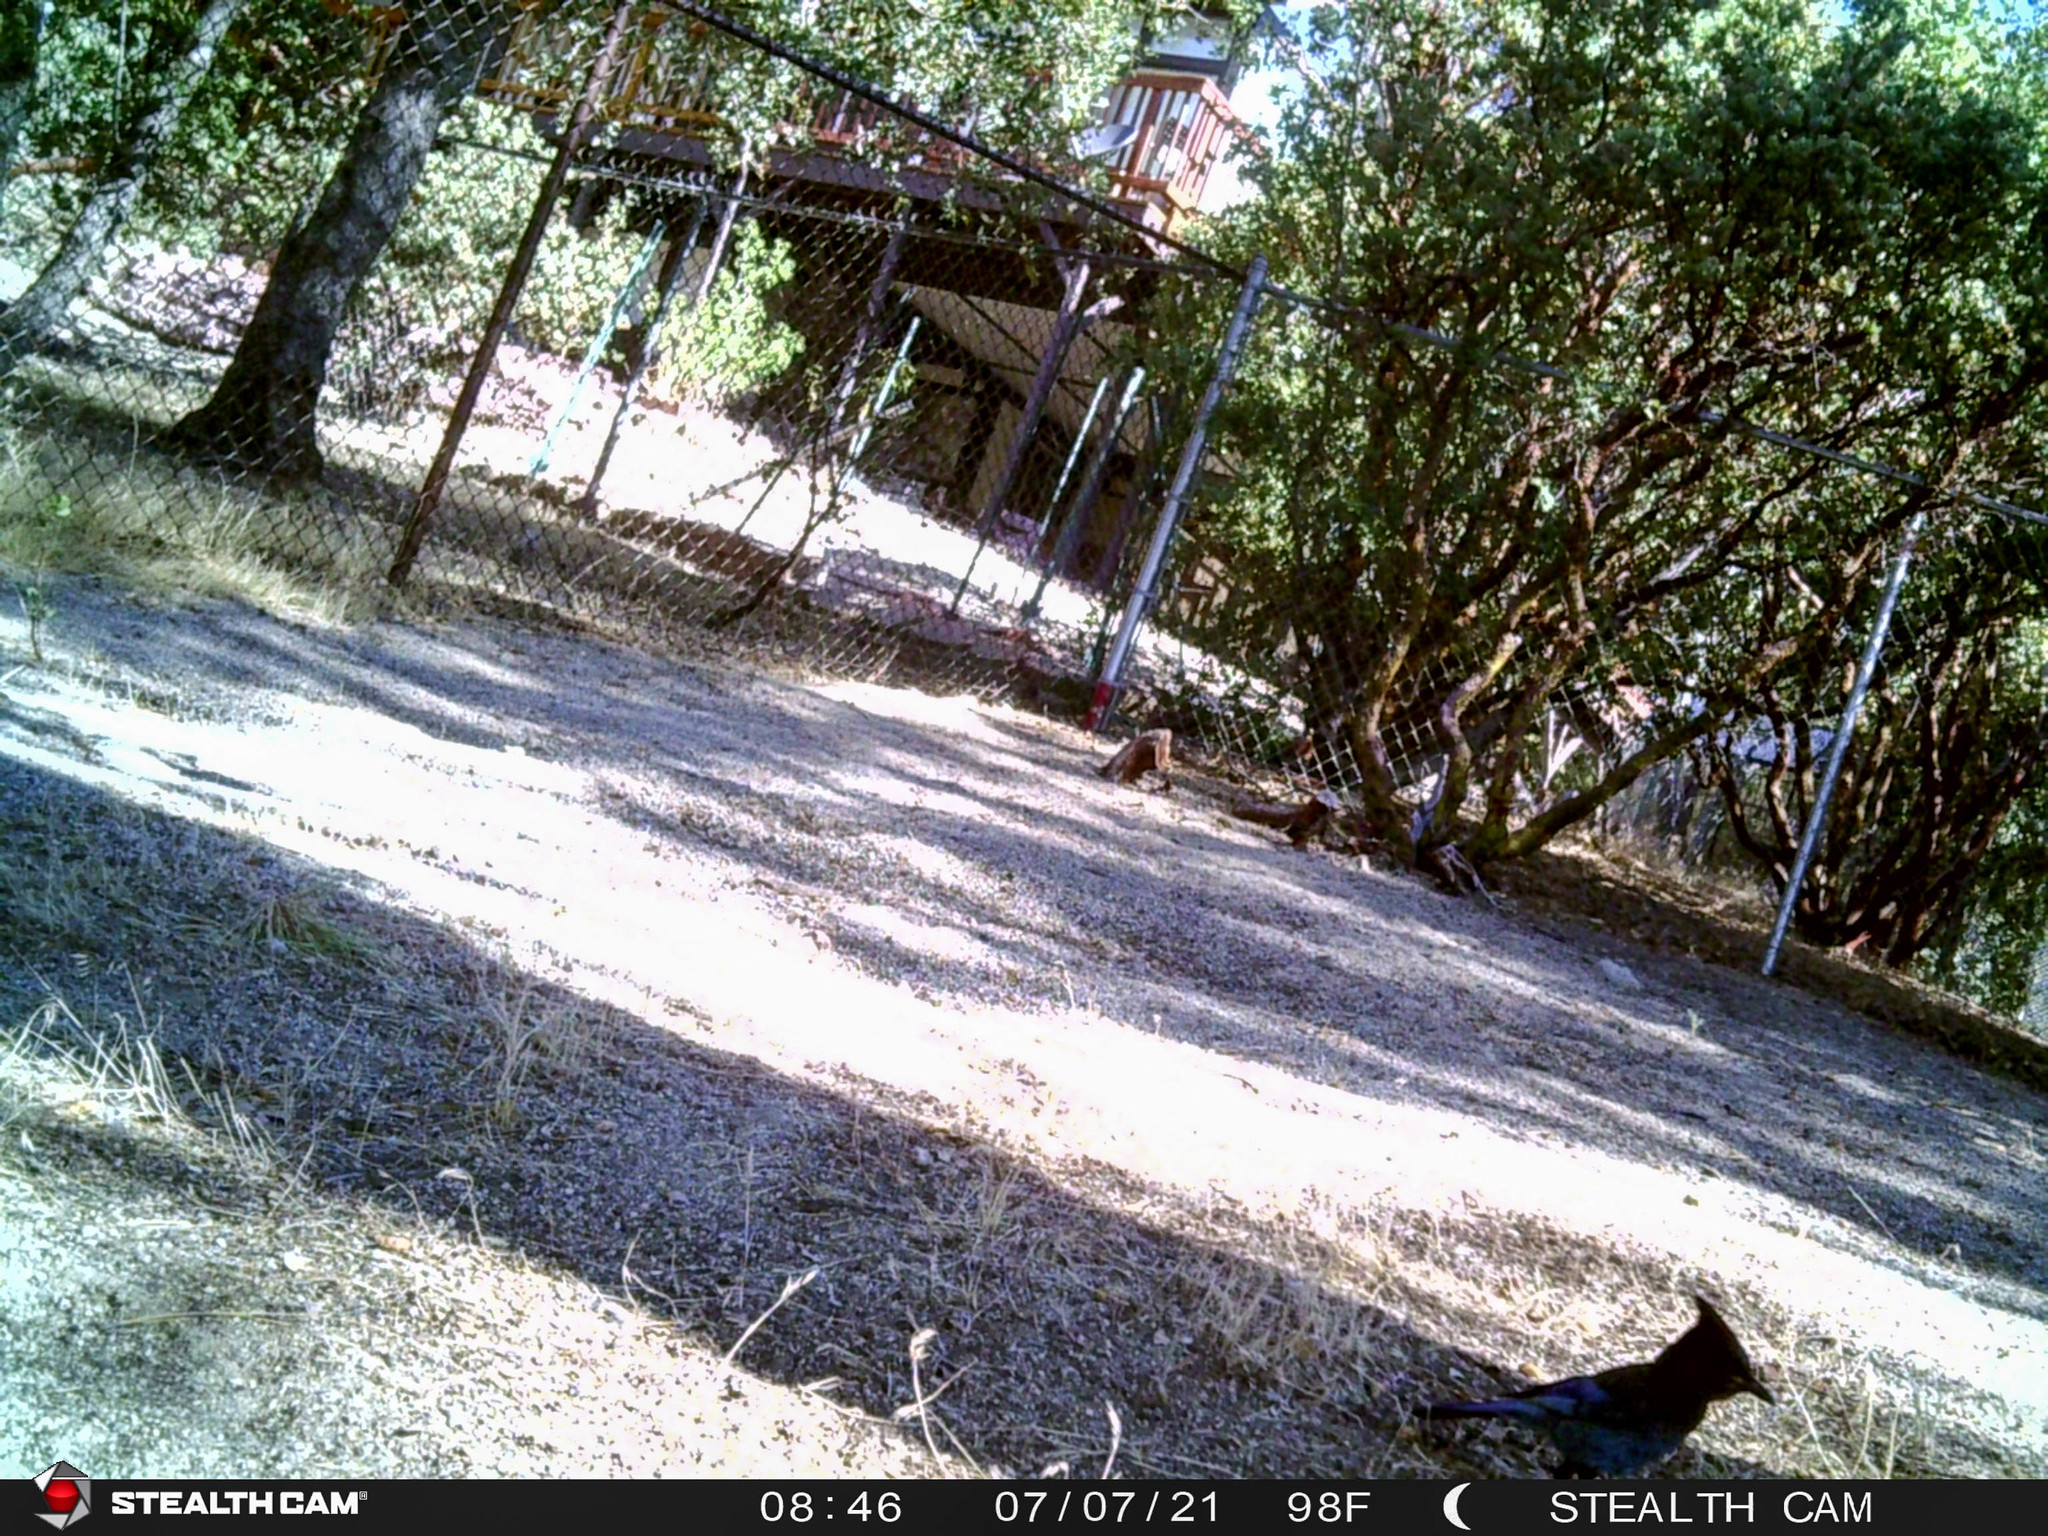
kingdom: Animalia
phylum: Chordata
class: Aves
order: Passeriformes
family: Corvidae
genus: Cyanocitta
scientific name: Cyanocitta stelleri
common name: Steller's jay
